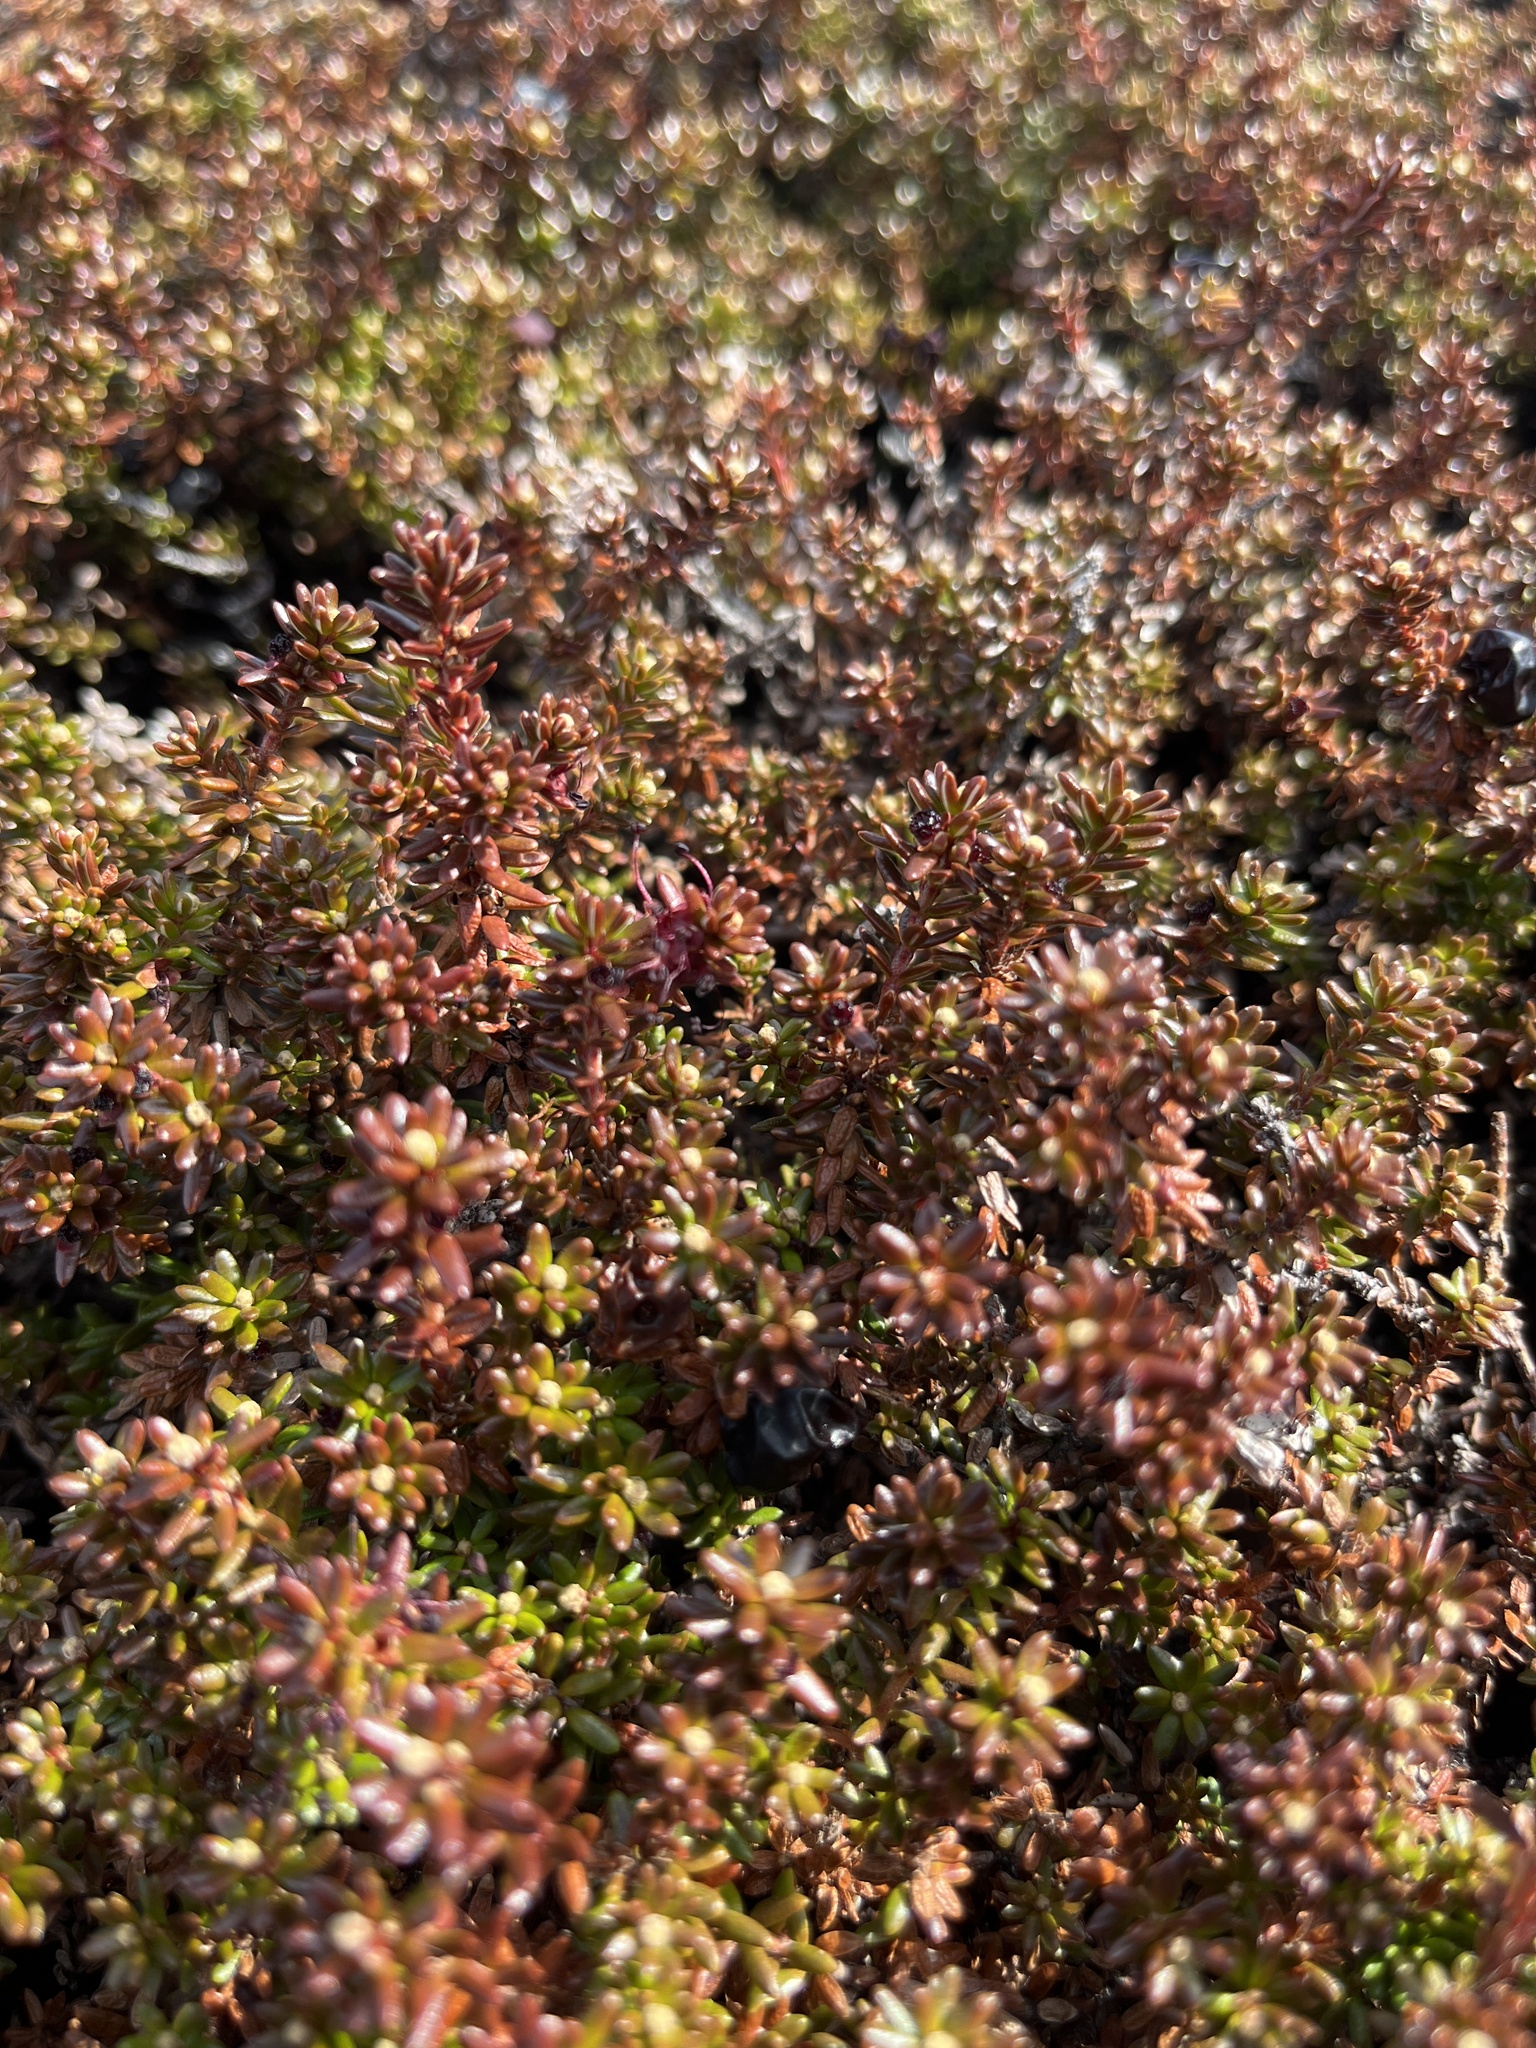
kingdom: Plantae
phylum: Tracheophyta
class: Magnoliopsida
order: Ericales
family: Ericaceae
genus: Empetrum
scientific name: Empetrum hermaphroditum
